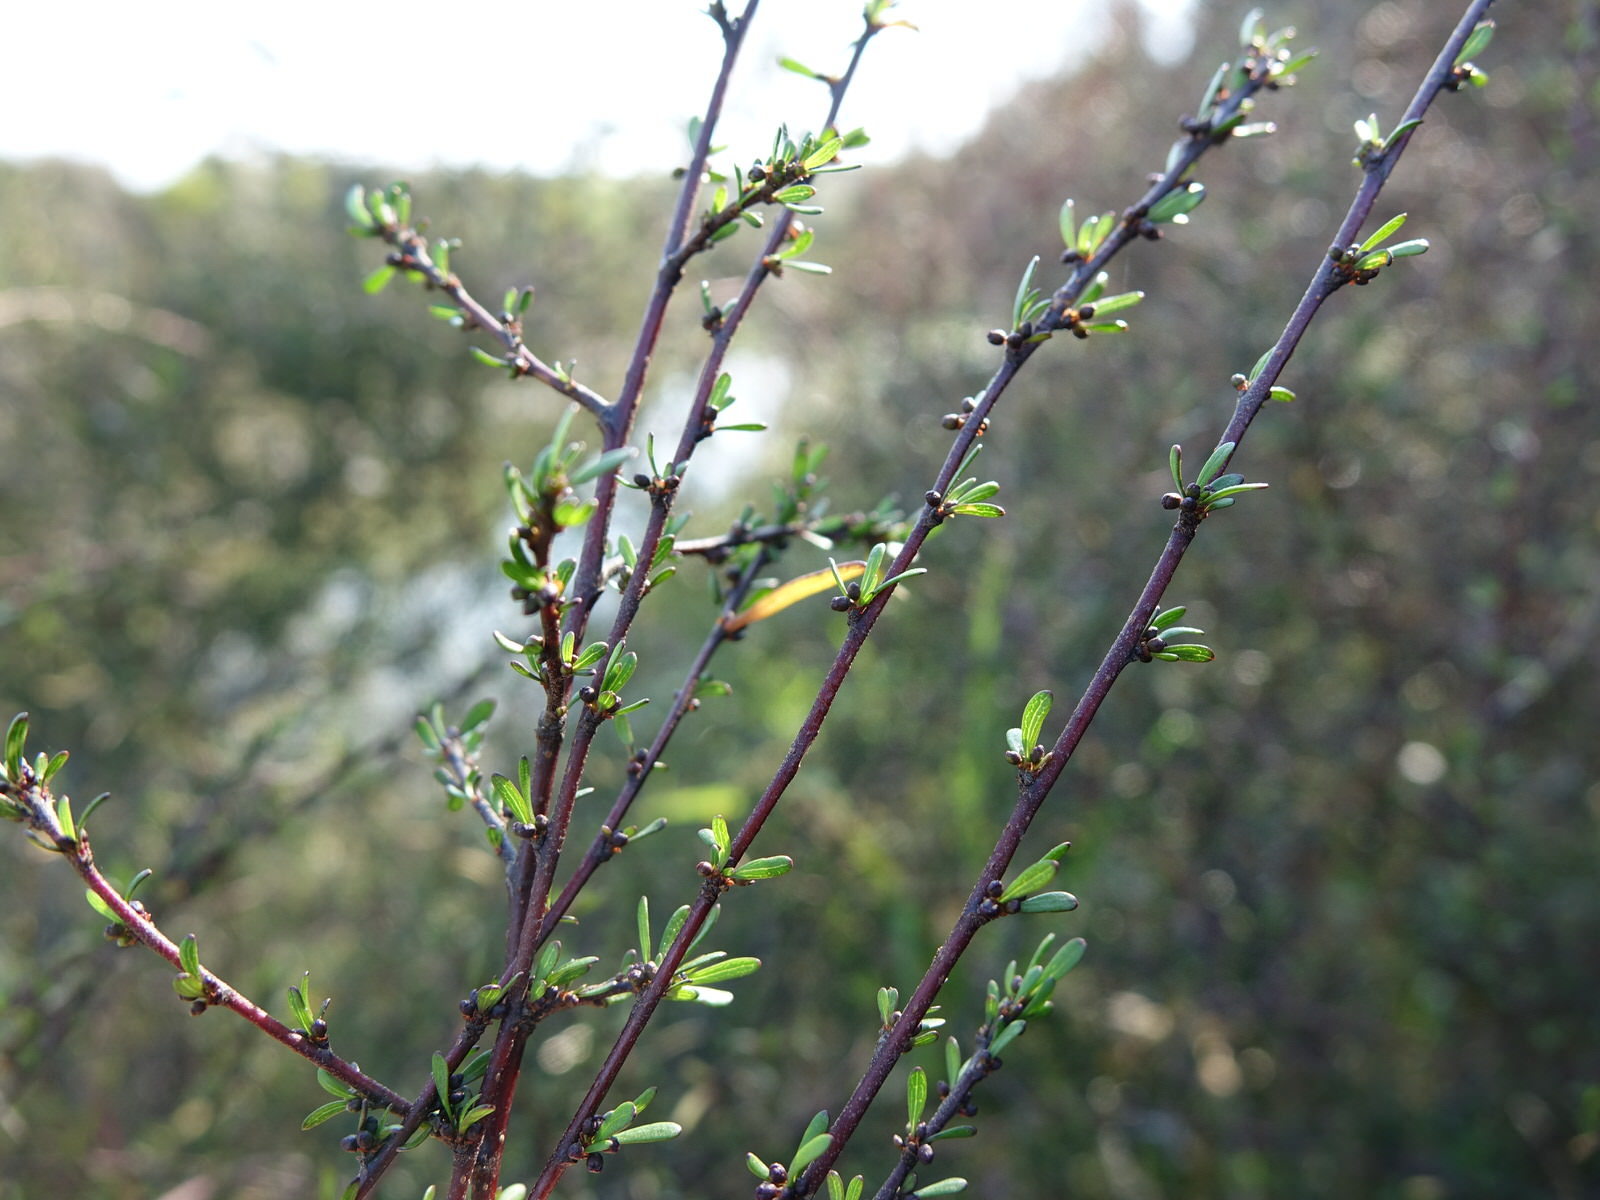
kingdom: Plantae
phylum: Tracheophyta
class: Magnoliopsida
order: Malvales
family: Malvaceae
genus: Plagianthus
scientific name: Plagianthus divaricatus
